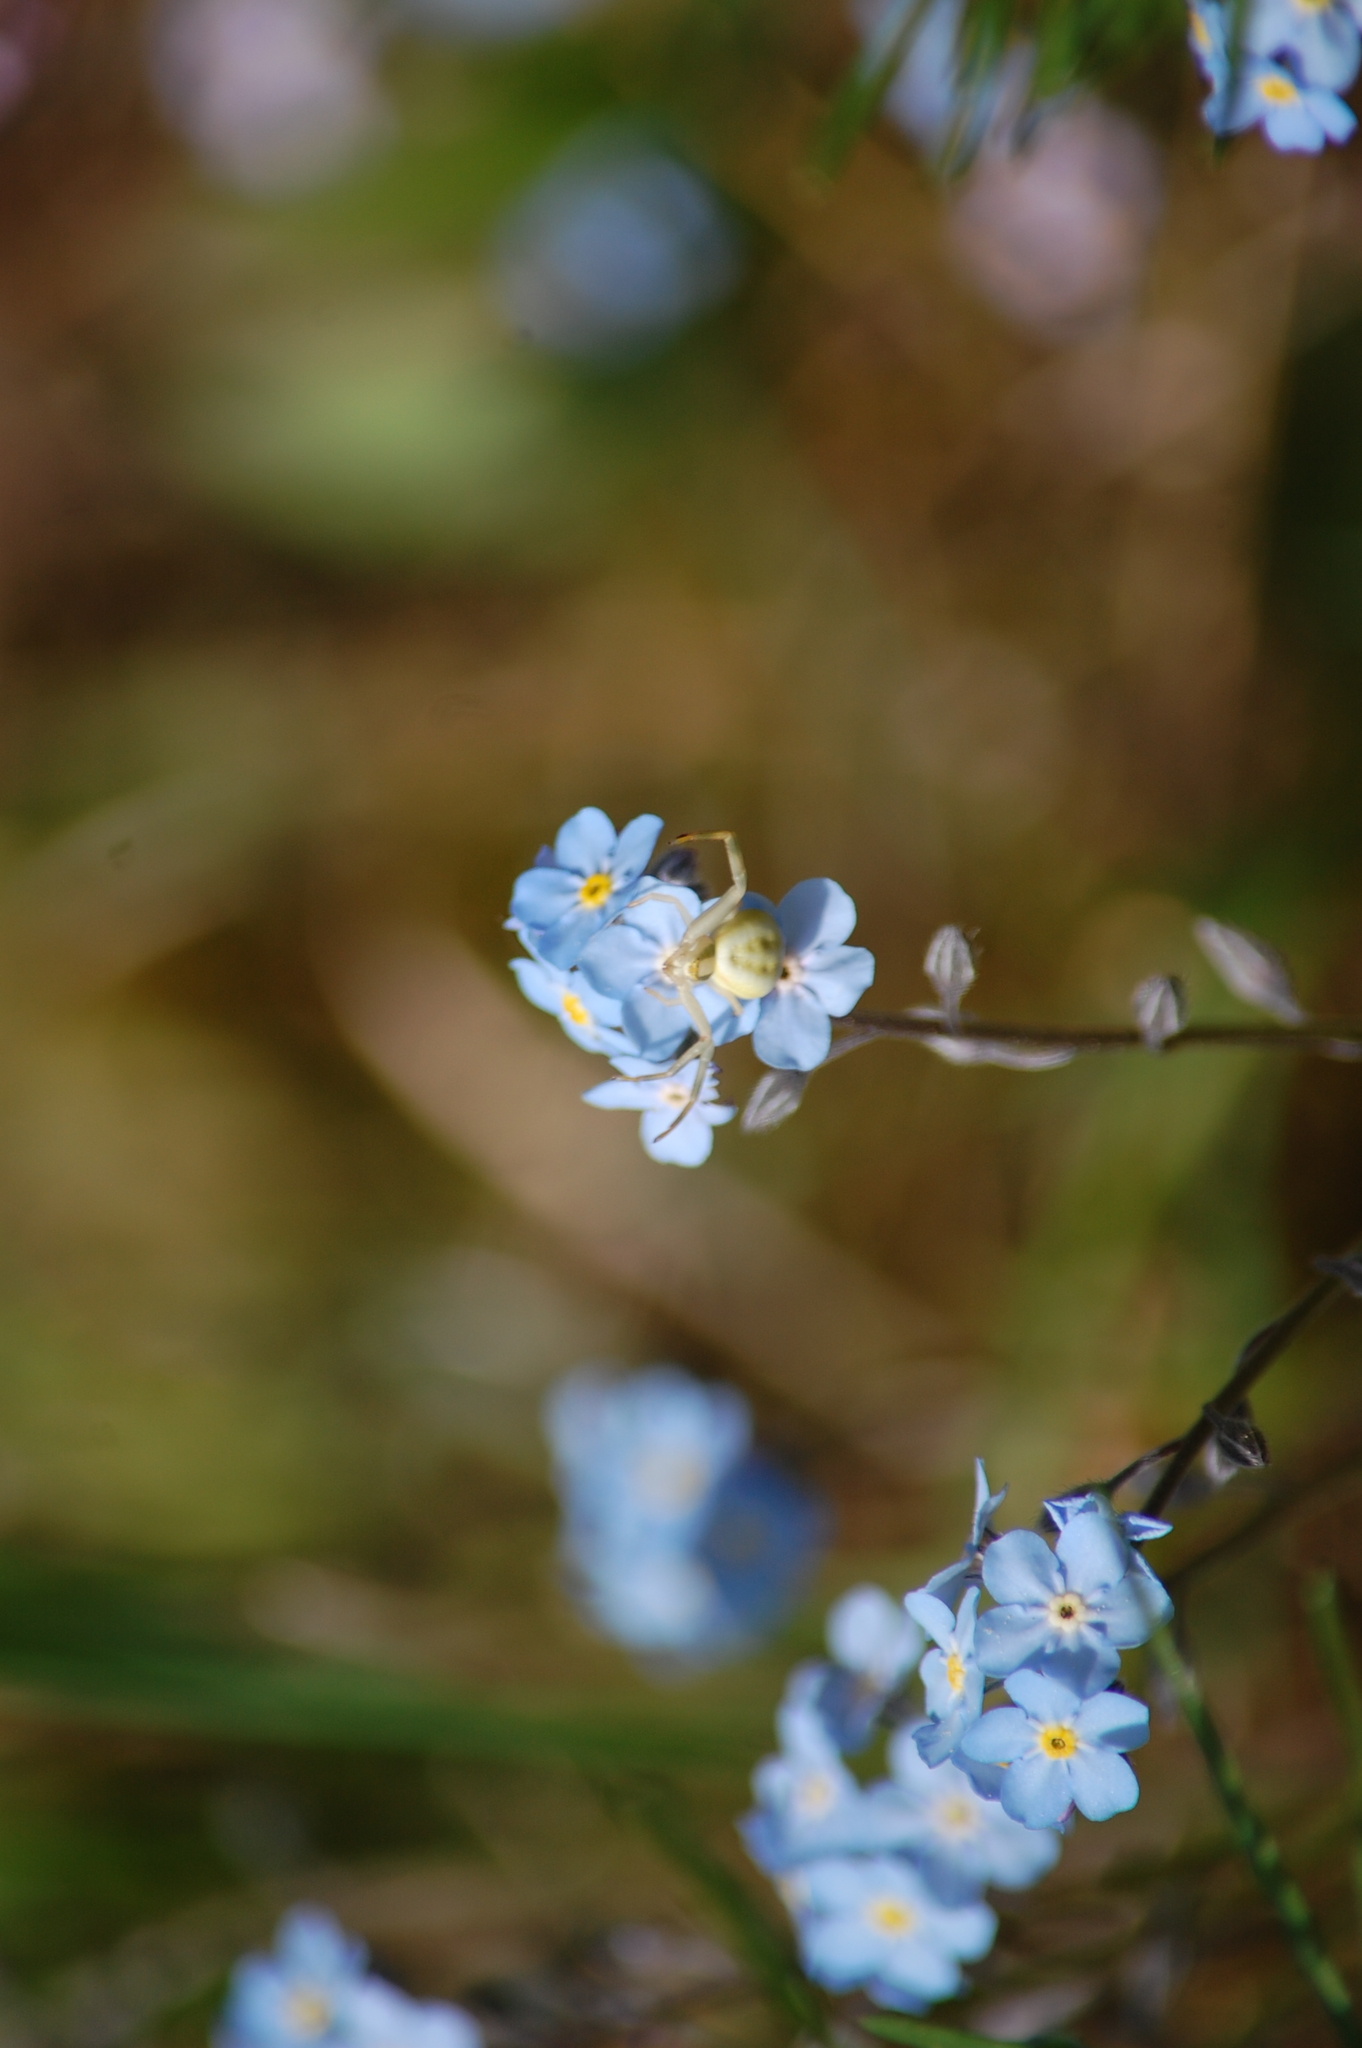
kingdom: Animalia
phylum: Arthropoda
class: Arachnida
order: Araneae
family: Thomisidae
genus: Misumena
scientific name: Misumena vatia
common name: Goldenrod crab spider
